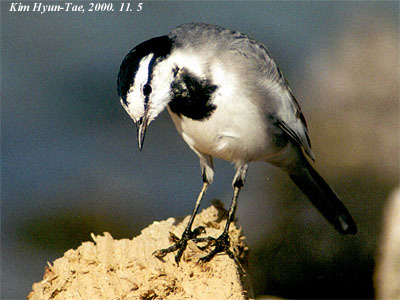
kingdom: Animalia
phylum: Chordata
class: Aves
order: Passeriformes
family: Motacillidae
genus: Motacilla
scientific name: Motacilla alba
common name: White wagtail
